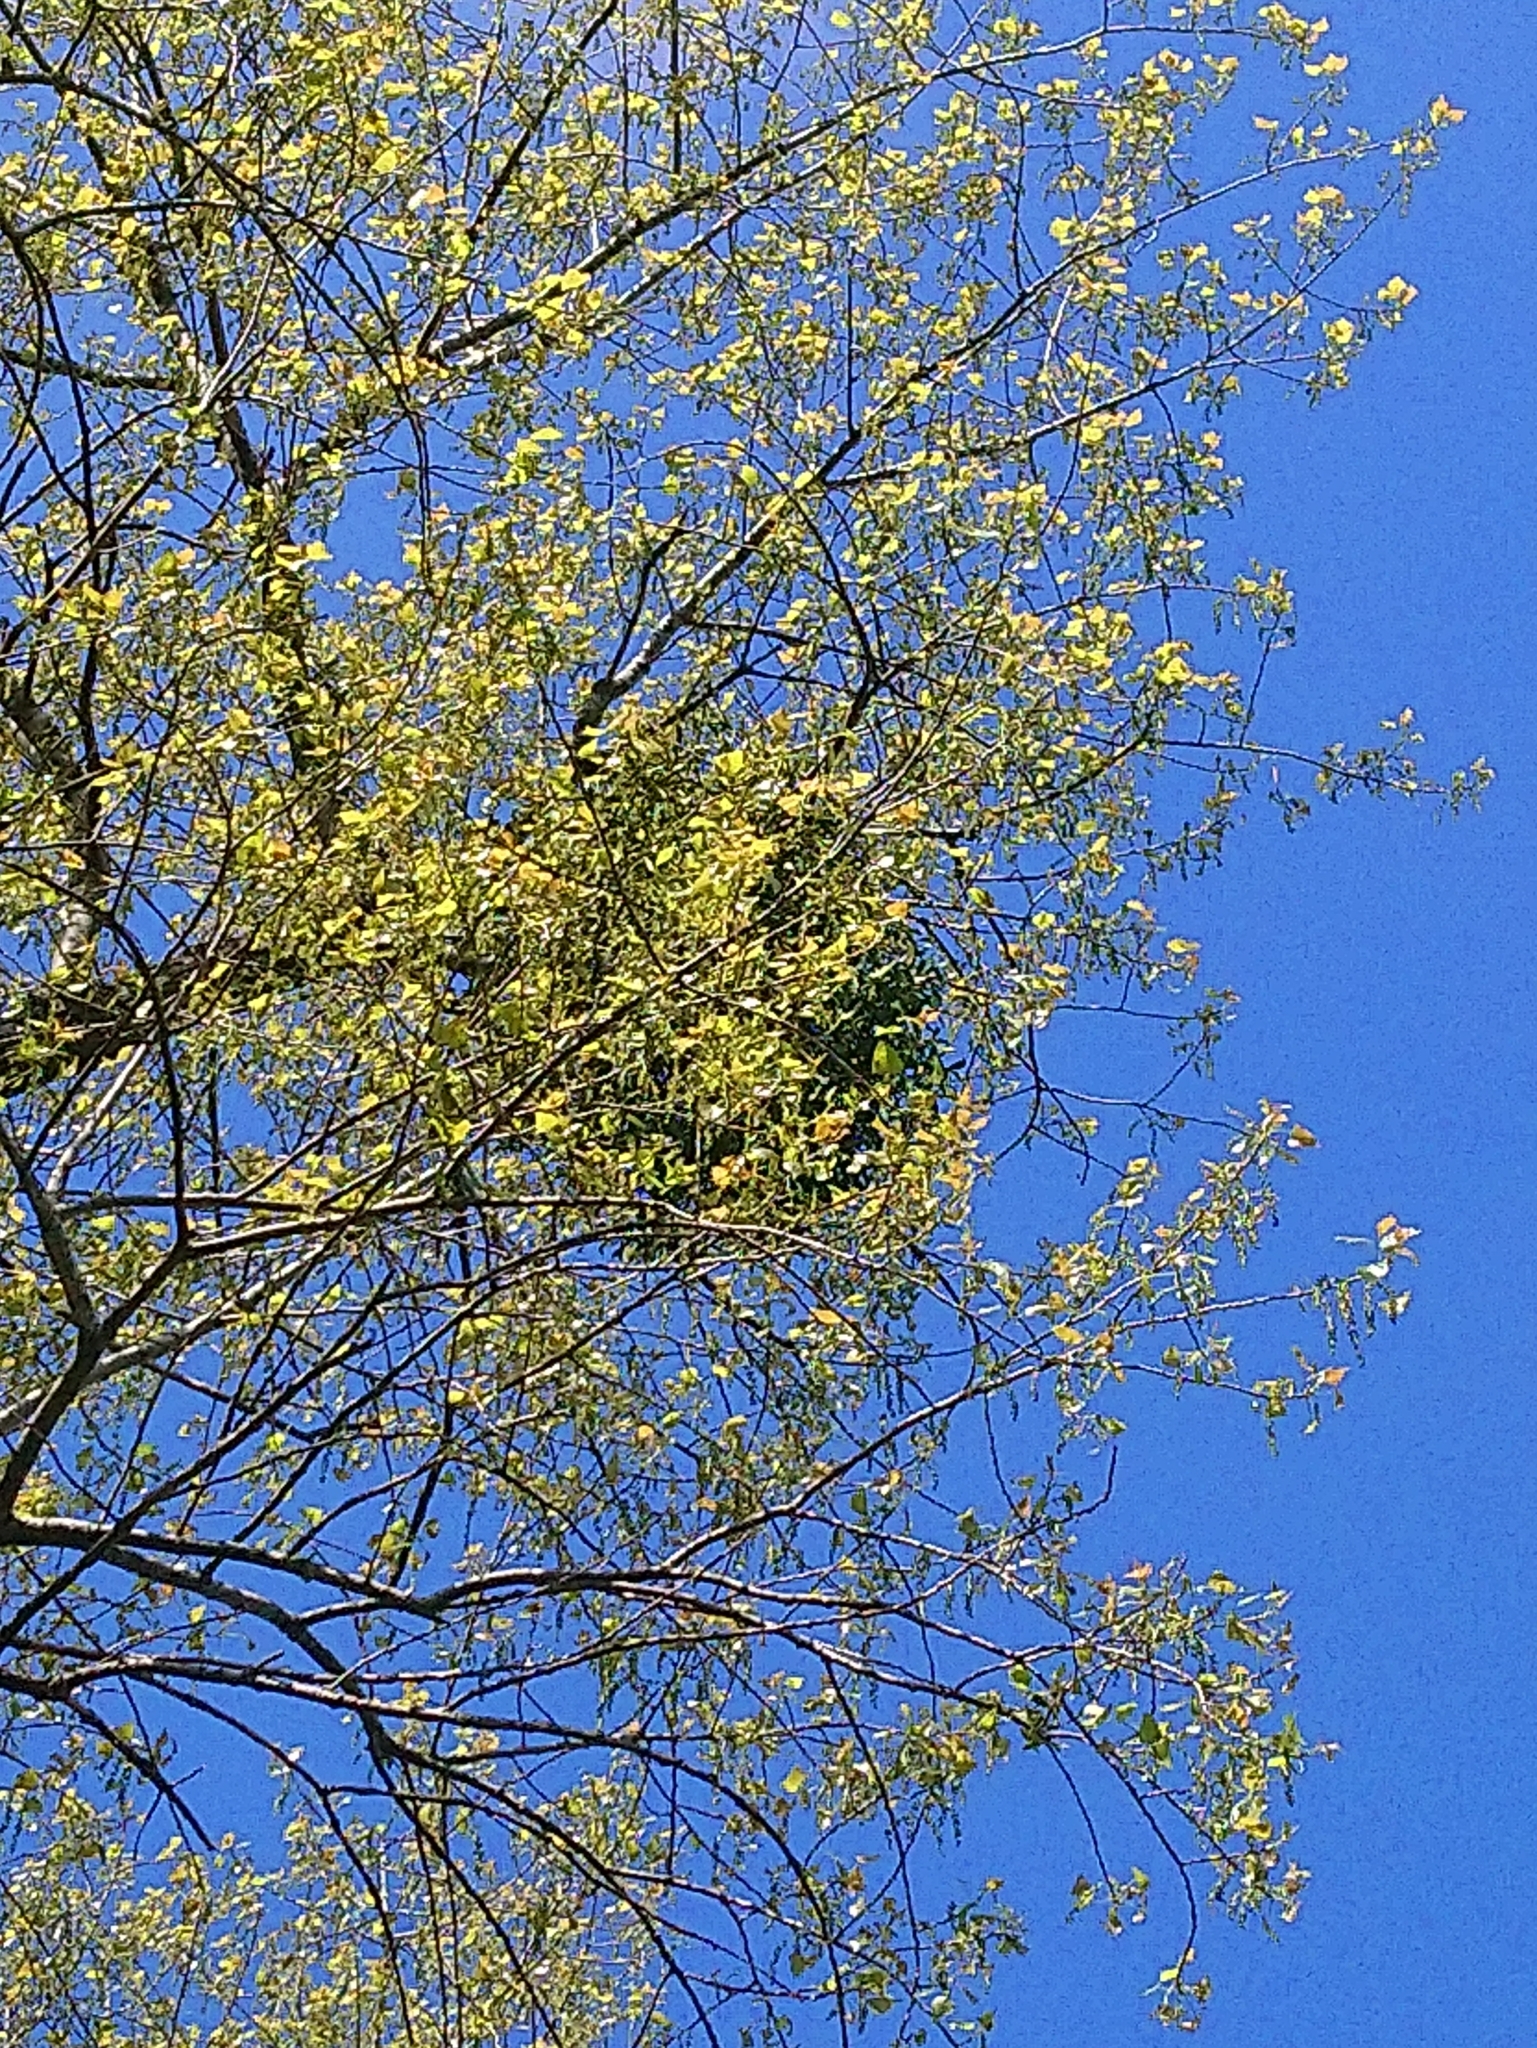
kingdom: Plantae
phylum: Tracheophyta
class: Magnoliopsida
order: Santalales
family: Viscaceae
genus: Viscum
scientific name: Viscum album
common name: Mistletoe
